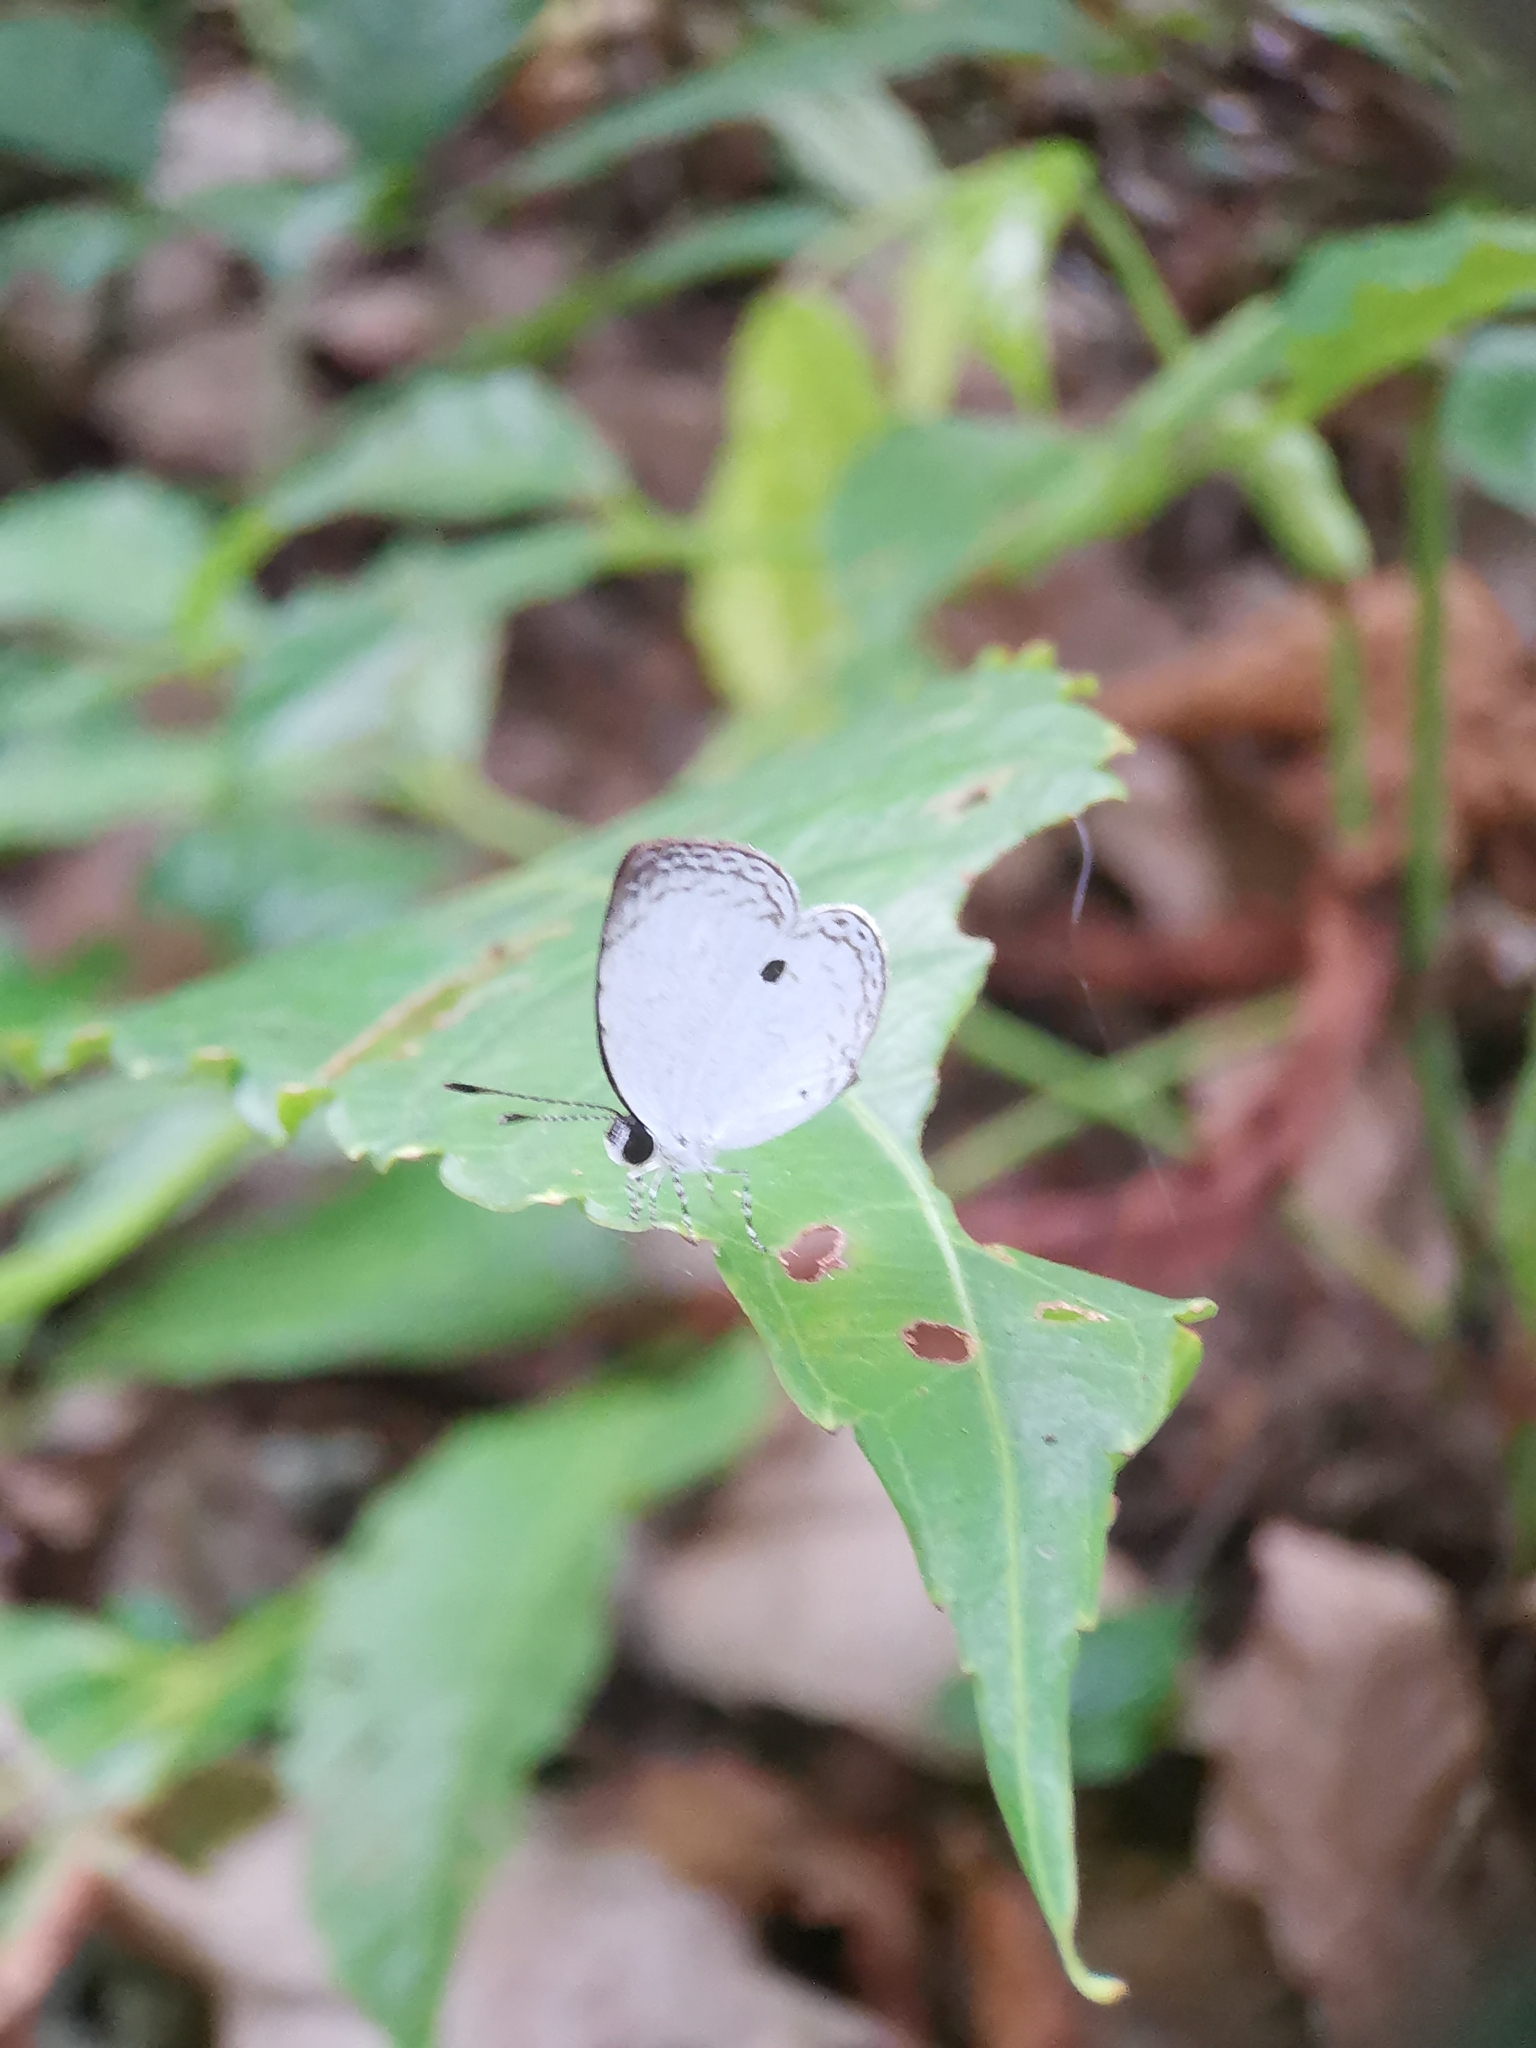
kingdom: Animalia
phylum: Arthropoda
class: Insecta
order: Lepidoptera
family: Lycaenidae
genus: Neopithecops
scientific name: Neopithecops zalmora
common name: Quaker
